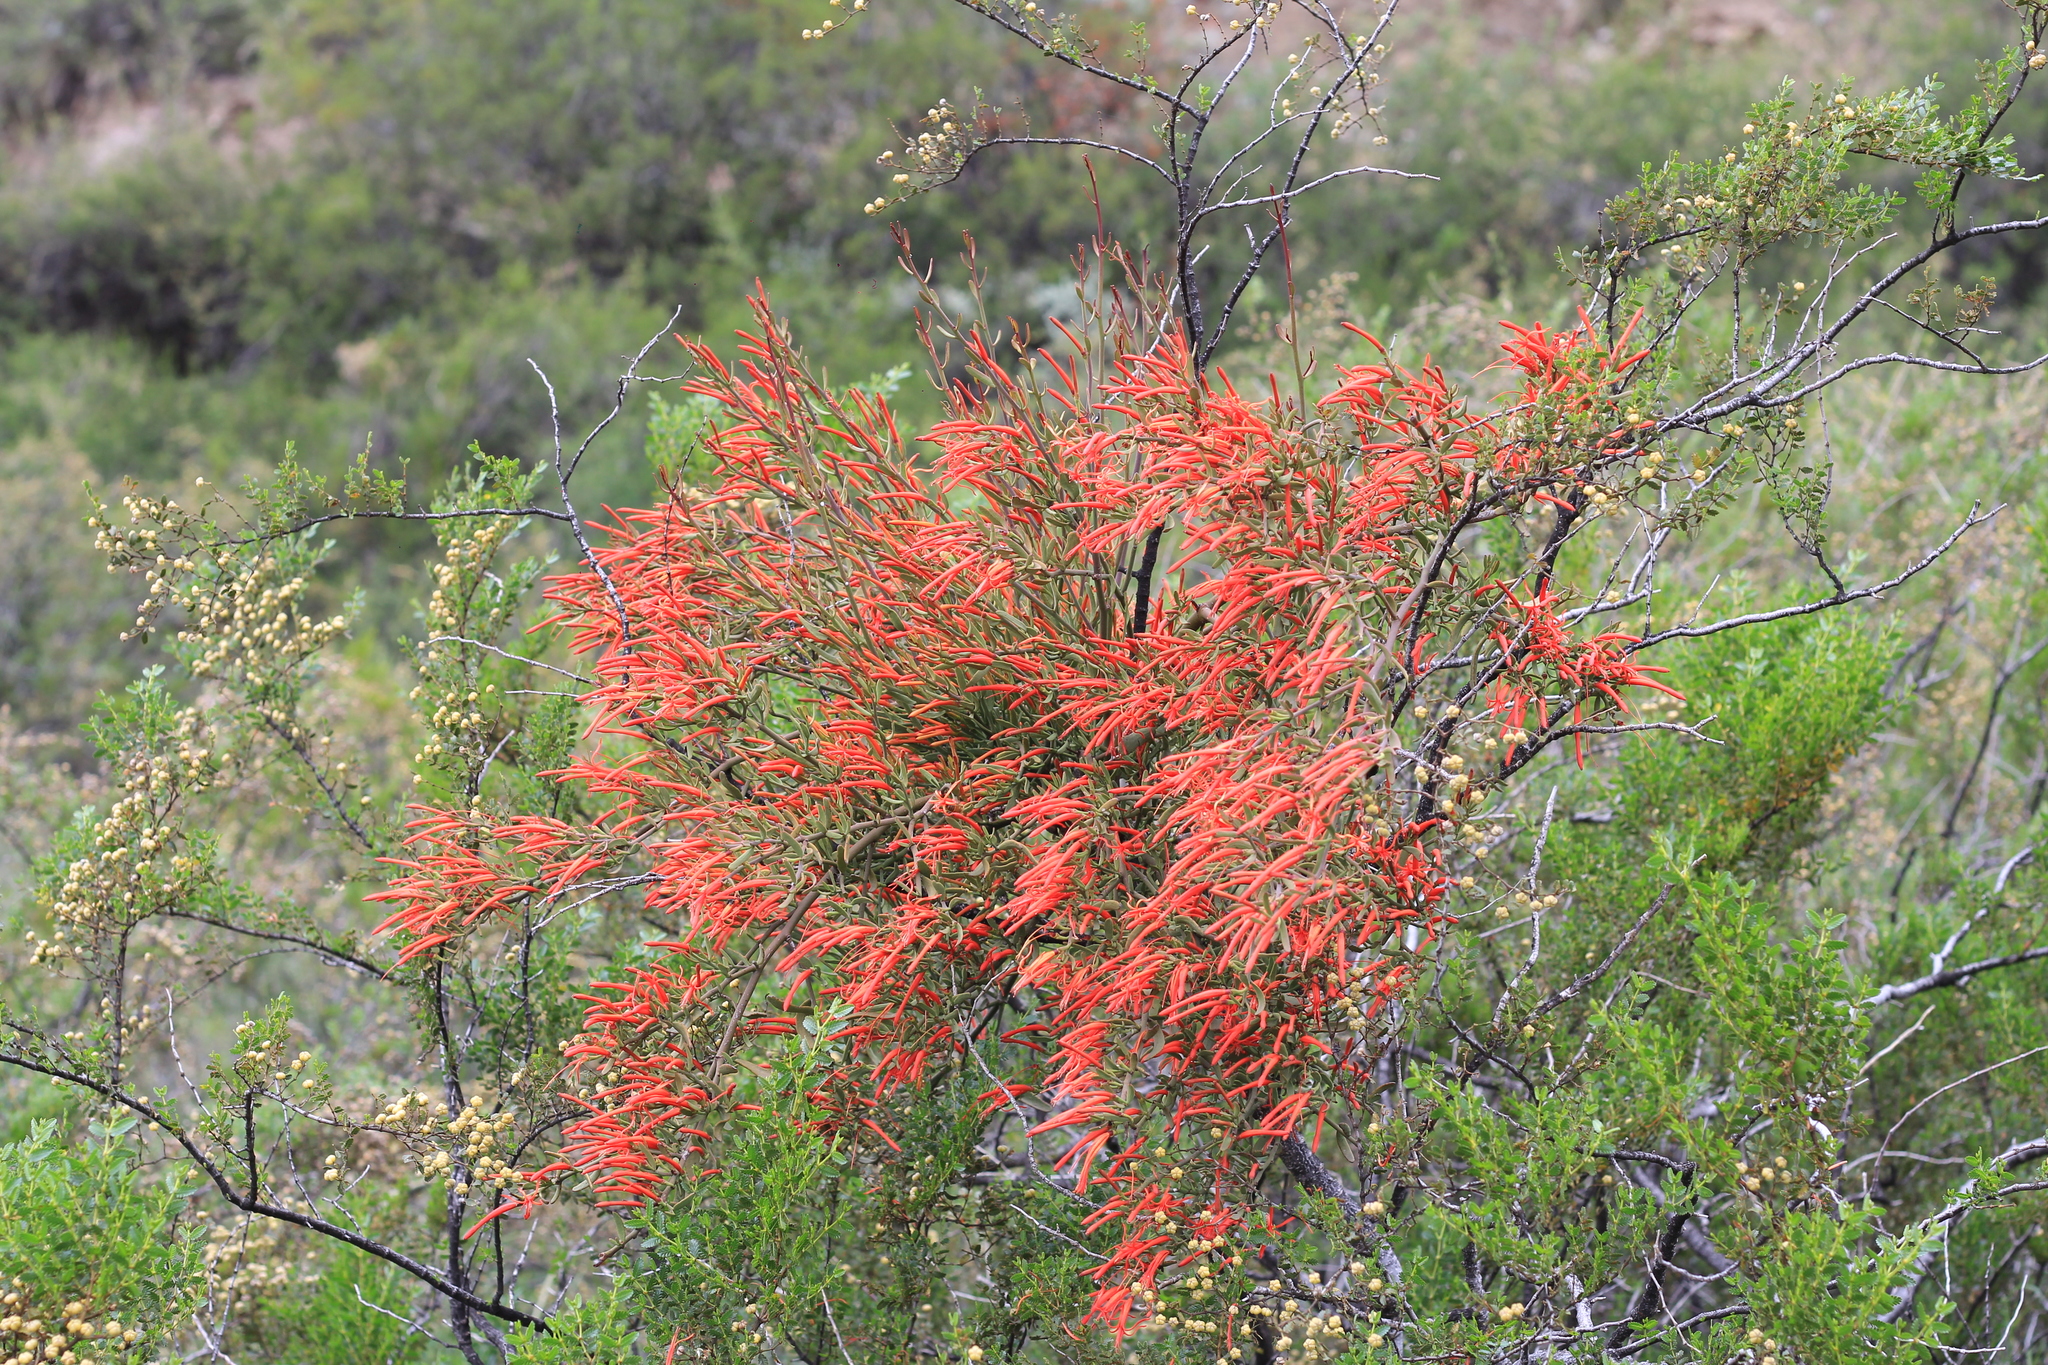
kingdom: Plantae
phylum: Tracheophyta
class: Magnoliopsida
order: Santalales
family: Loranthaceae
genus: Ligaria
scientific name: Ligaria cuneifolia
